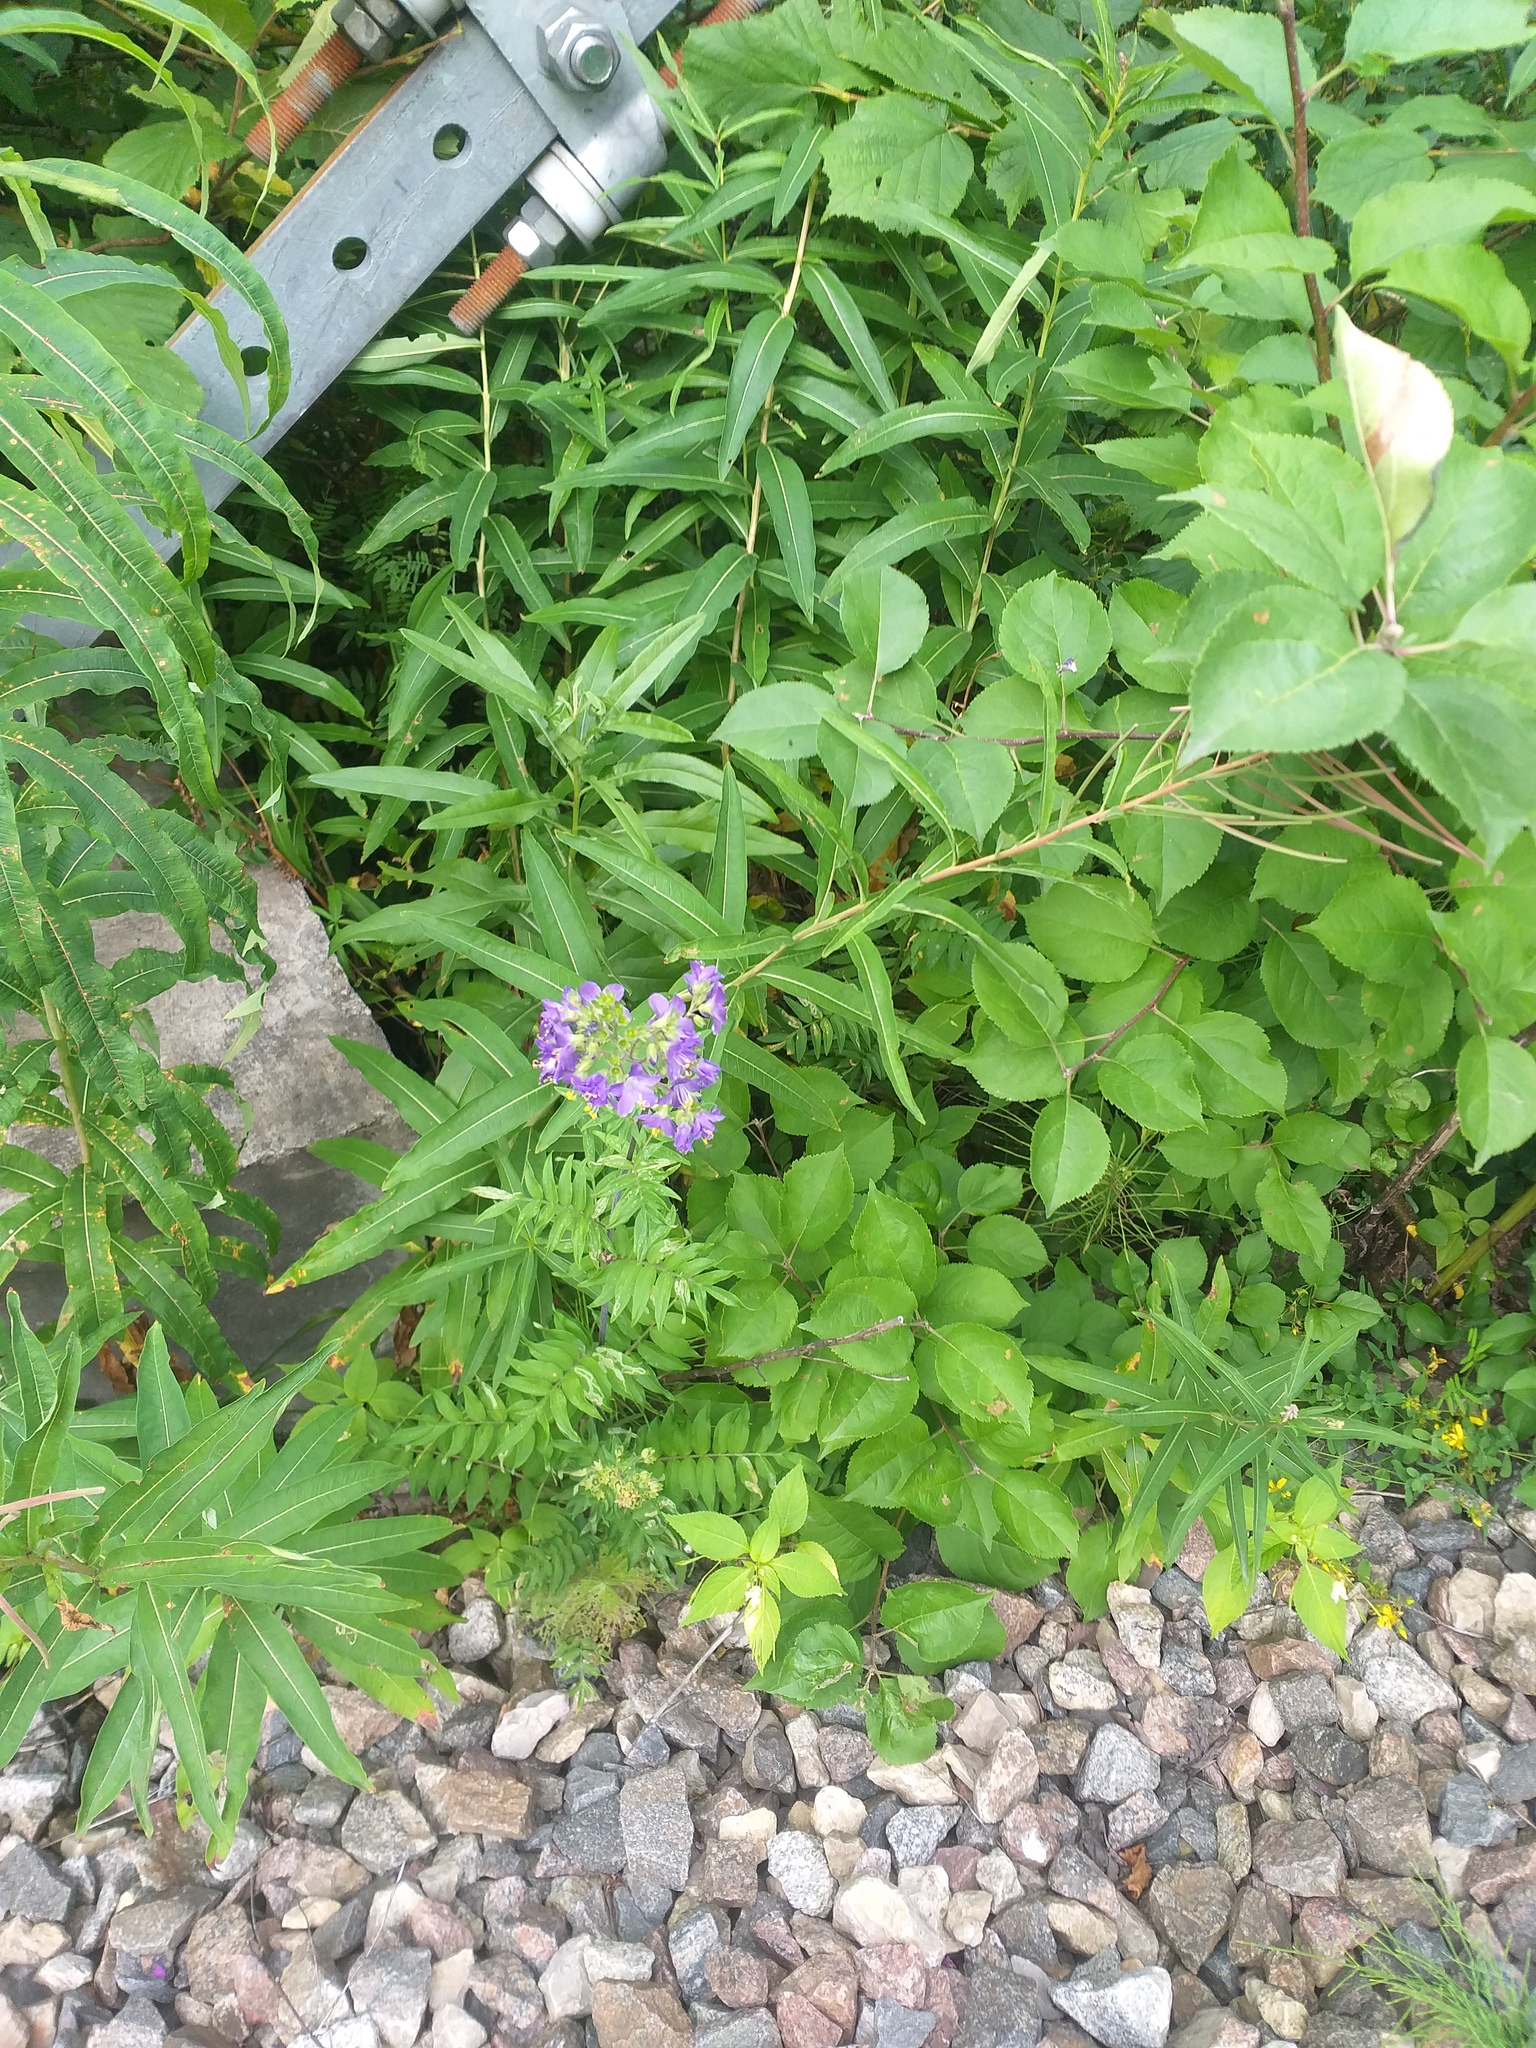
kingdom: Plantae
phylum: Tracheophyta
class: Magnoliopsida
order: Ericales
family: Polemoniaceae
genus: Polemonium
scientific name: Polemonium caeruleum
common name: Jacob's-ladder
